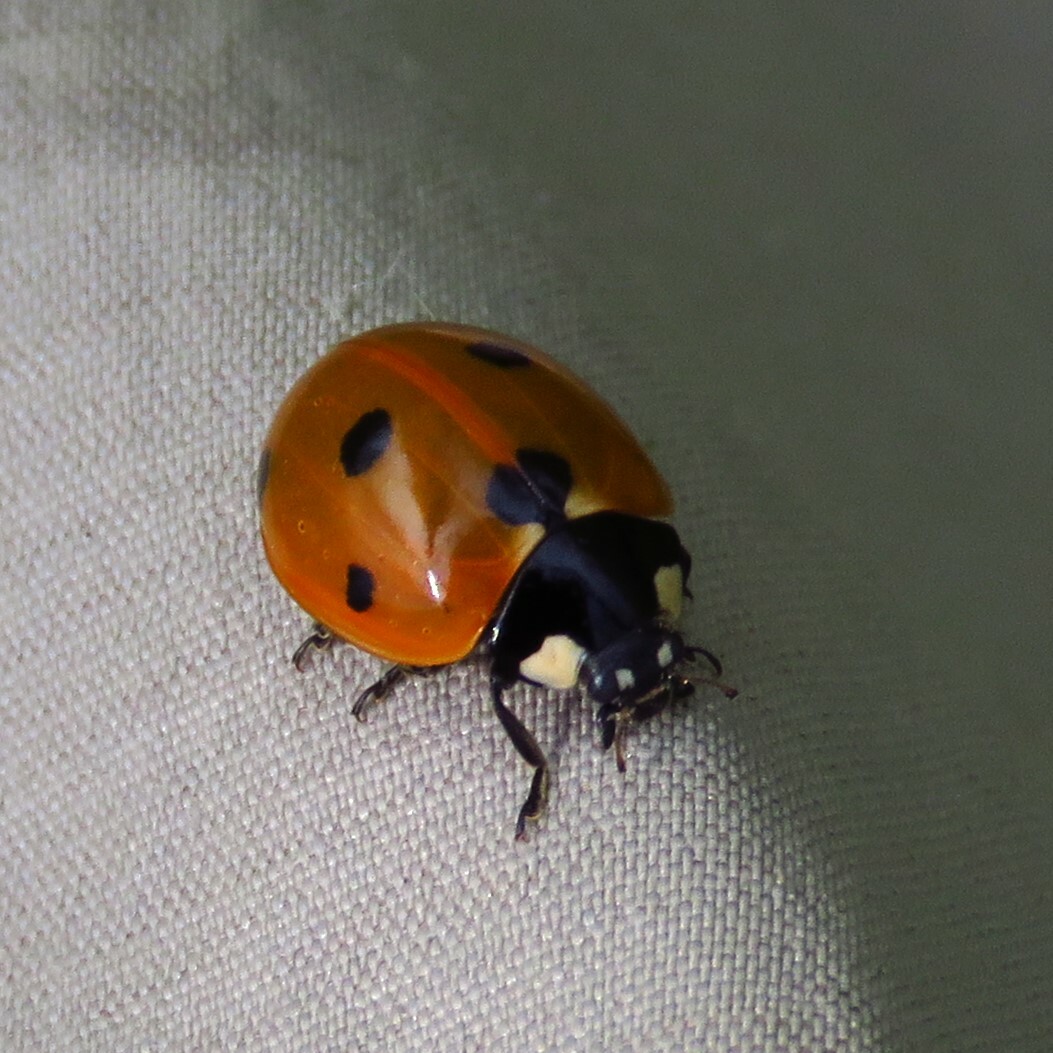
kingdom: Animalia
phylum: Arthropoda
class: Insecta
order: Coleoptera
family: Coccinellidae
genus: Coccinella
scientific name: Coccinella septempunctata
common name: Sevenspotted lady beetle
